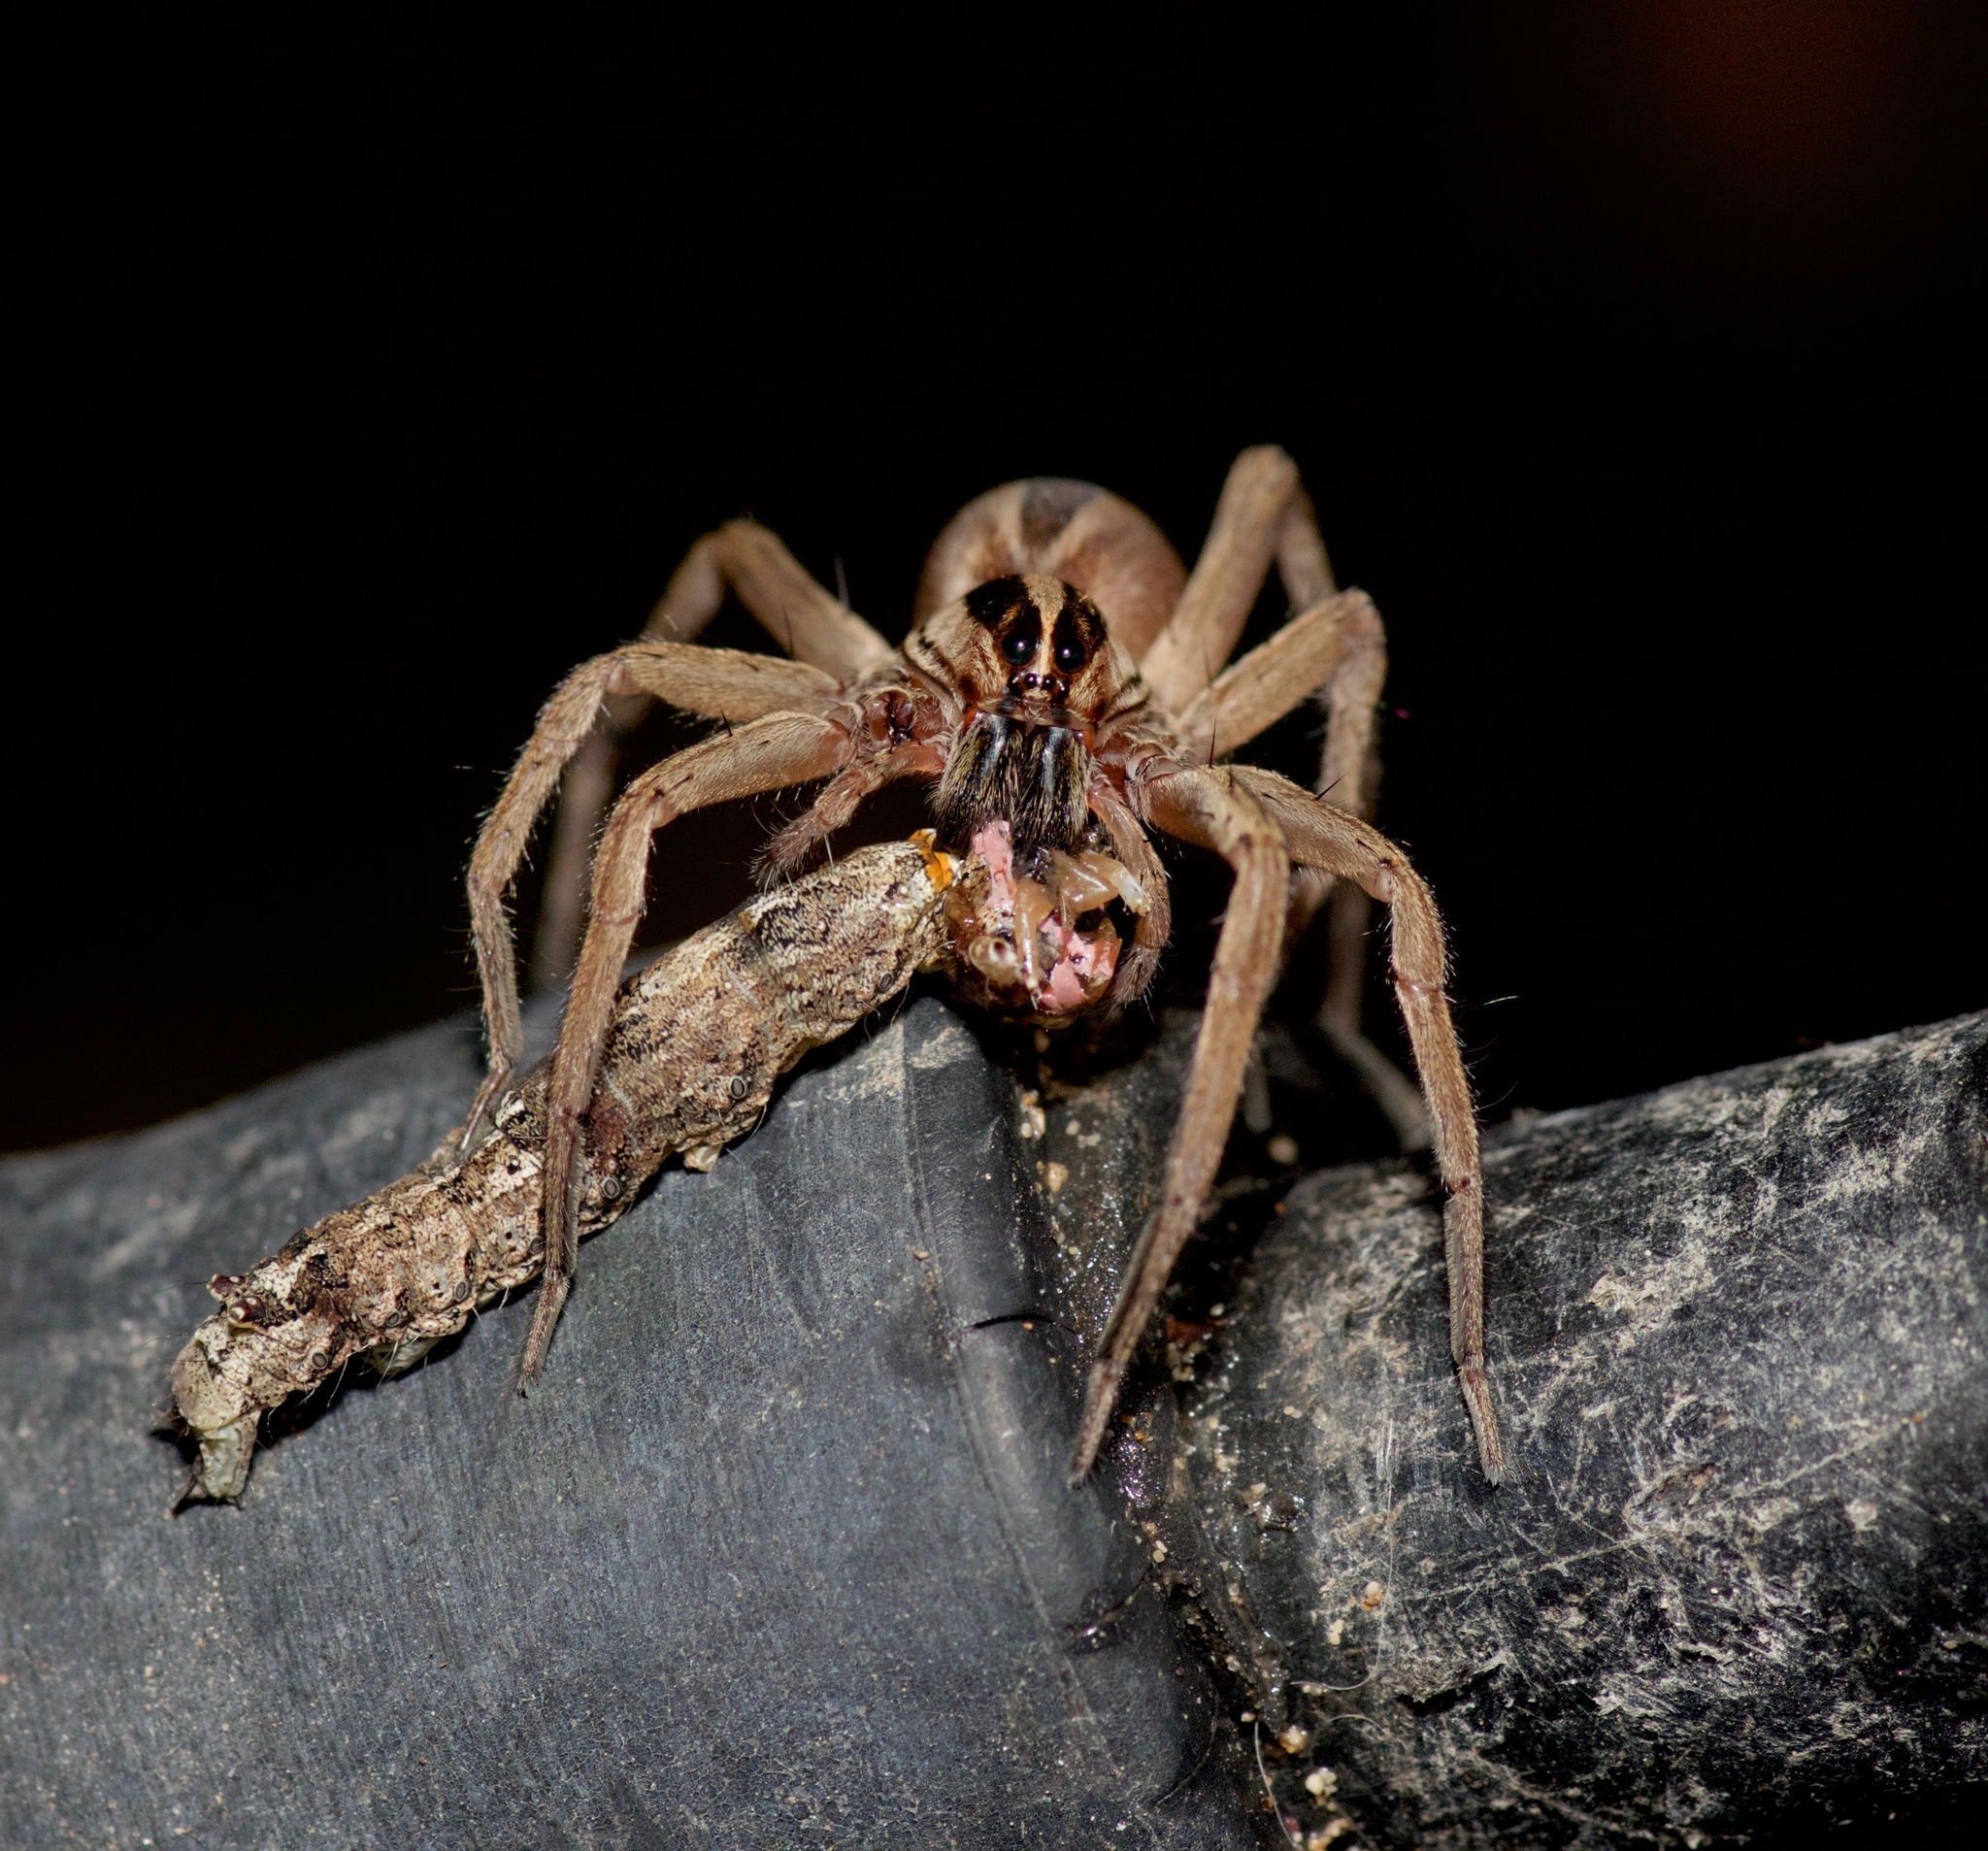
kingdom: Animalia
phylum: Arthropoda
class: Arachnida
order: Araneae
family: Lycosidae
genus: Rabidosa
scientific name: Rabidosa punctulata
